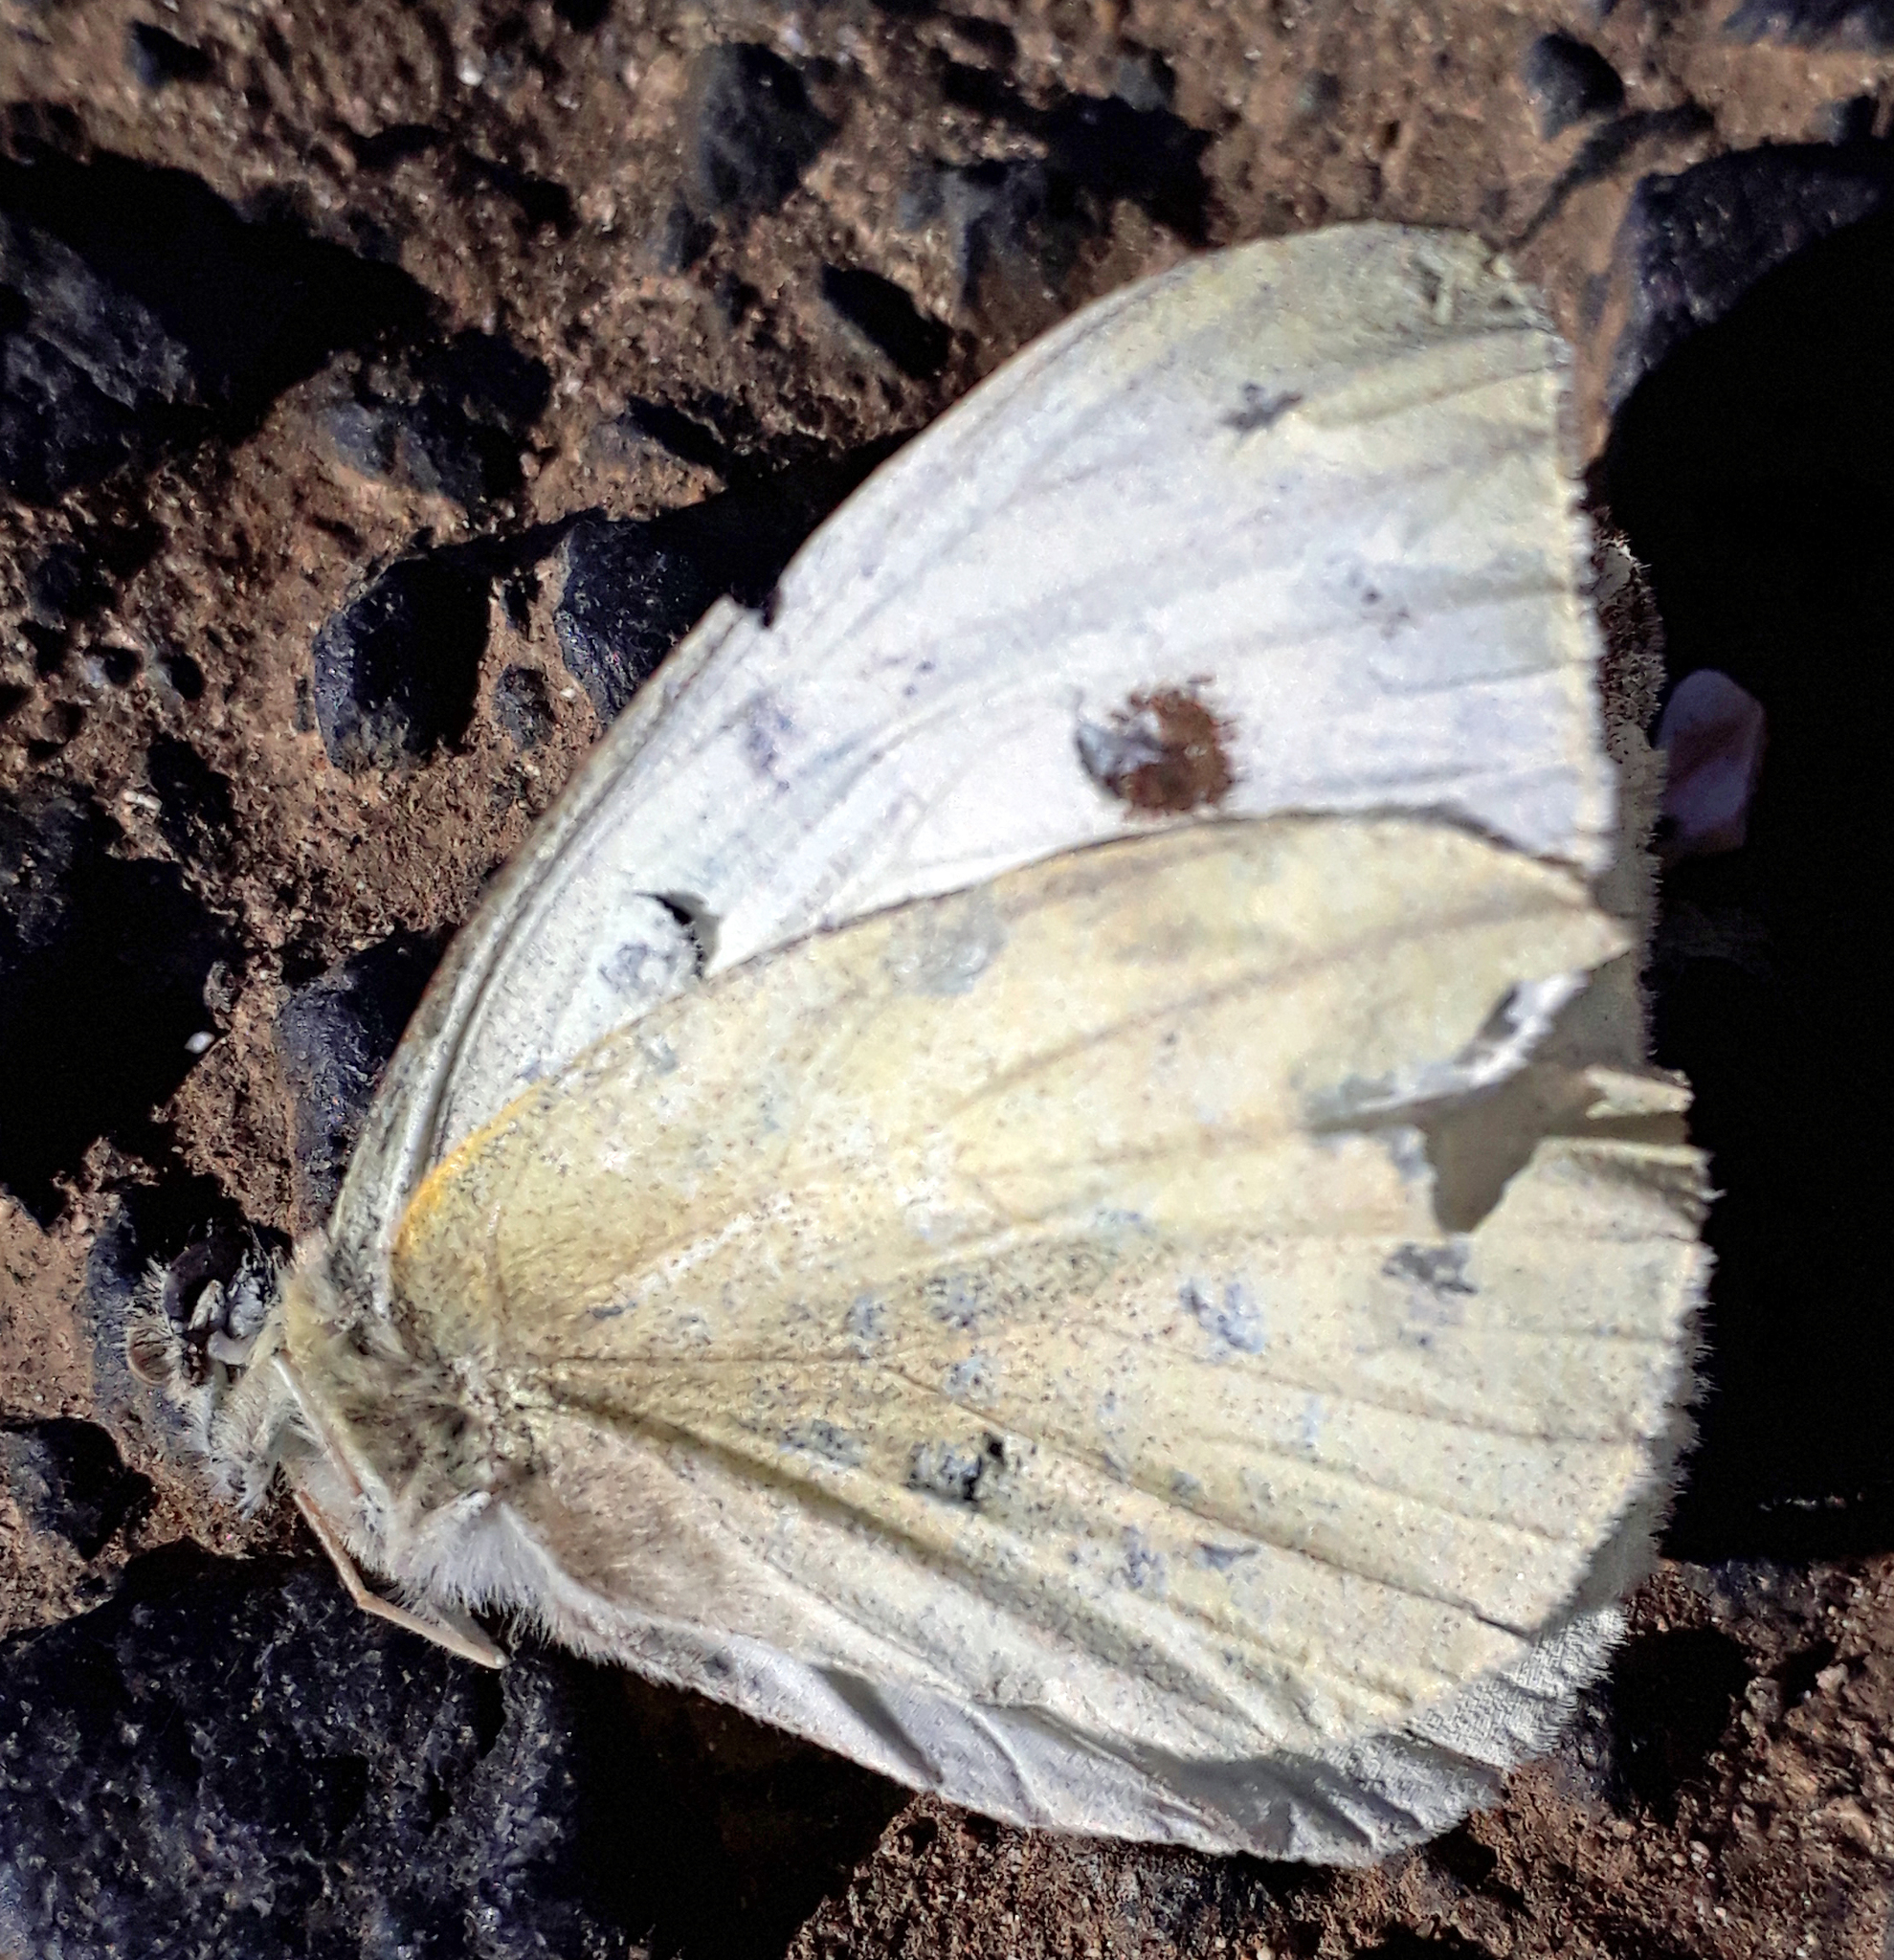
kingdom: Animalia
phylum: Arthropoda
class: Insecta
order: Lepidoptera
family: Pieridae
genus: Pieris
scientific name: Pieris rapae
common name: Small white
